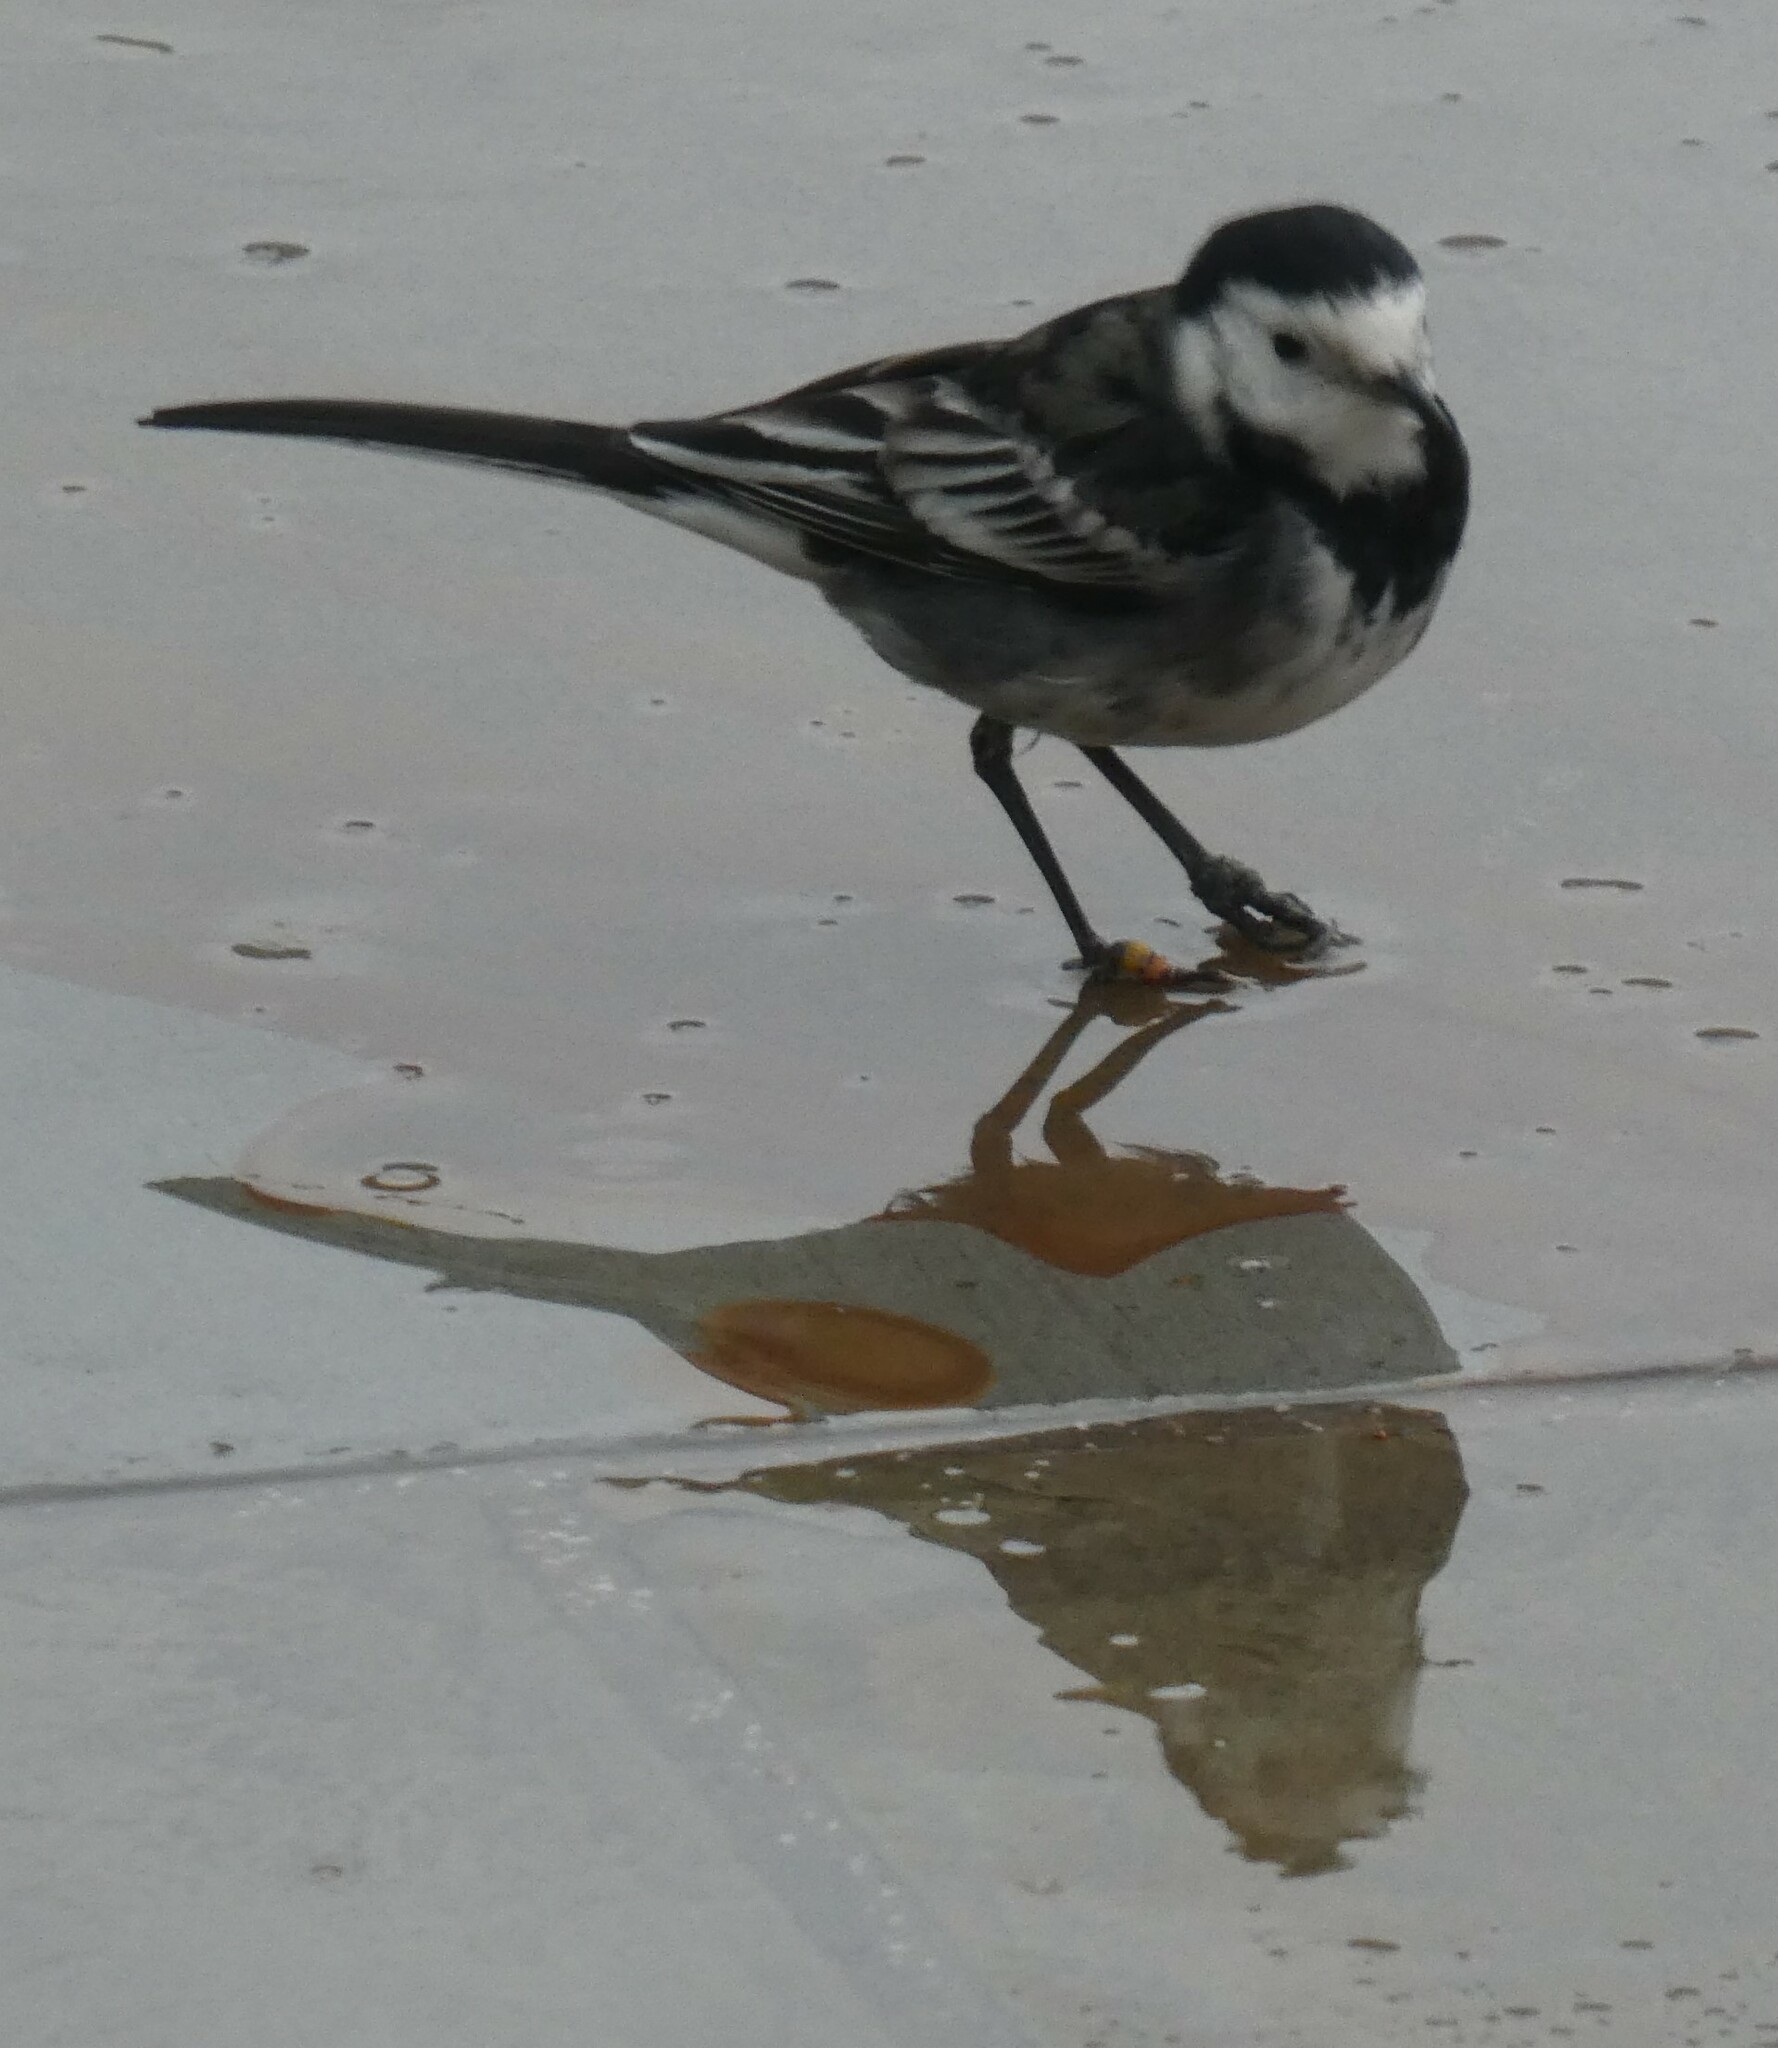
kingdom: Animalia
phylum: Chordata
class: Aves
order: Passeriformes
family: Motacillidae
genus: Motacilla
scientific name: Motacilla alba
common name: White wagtail
